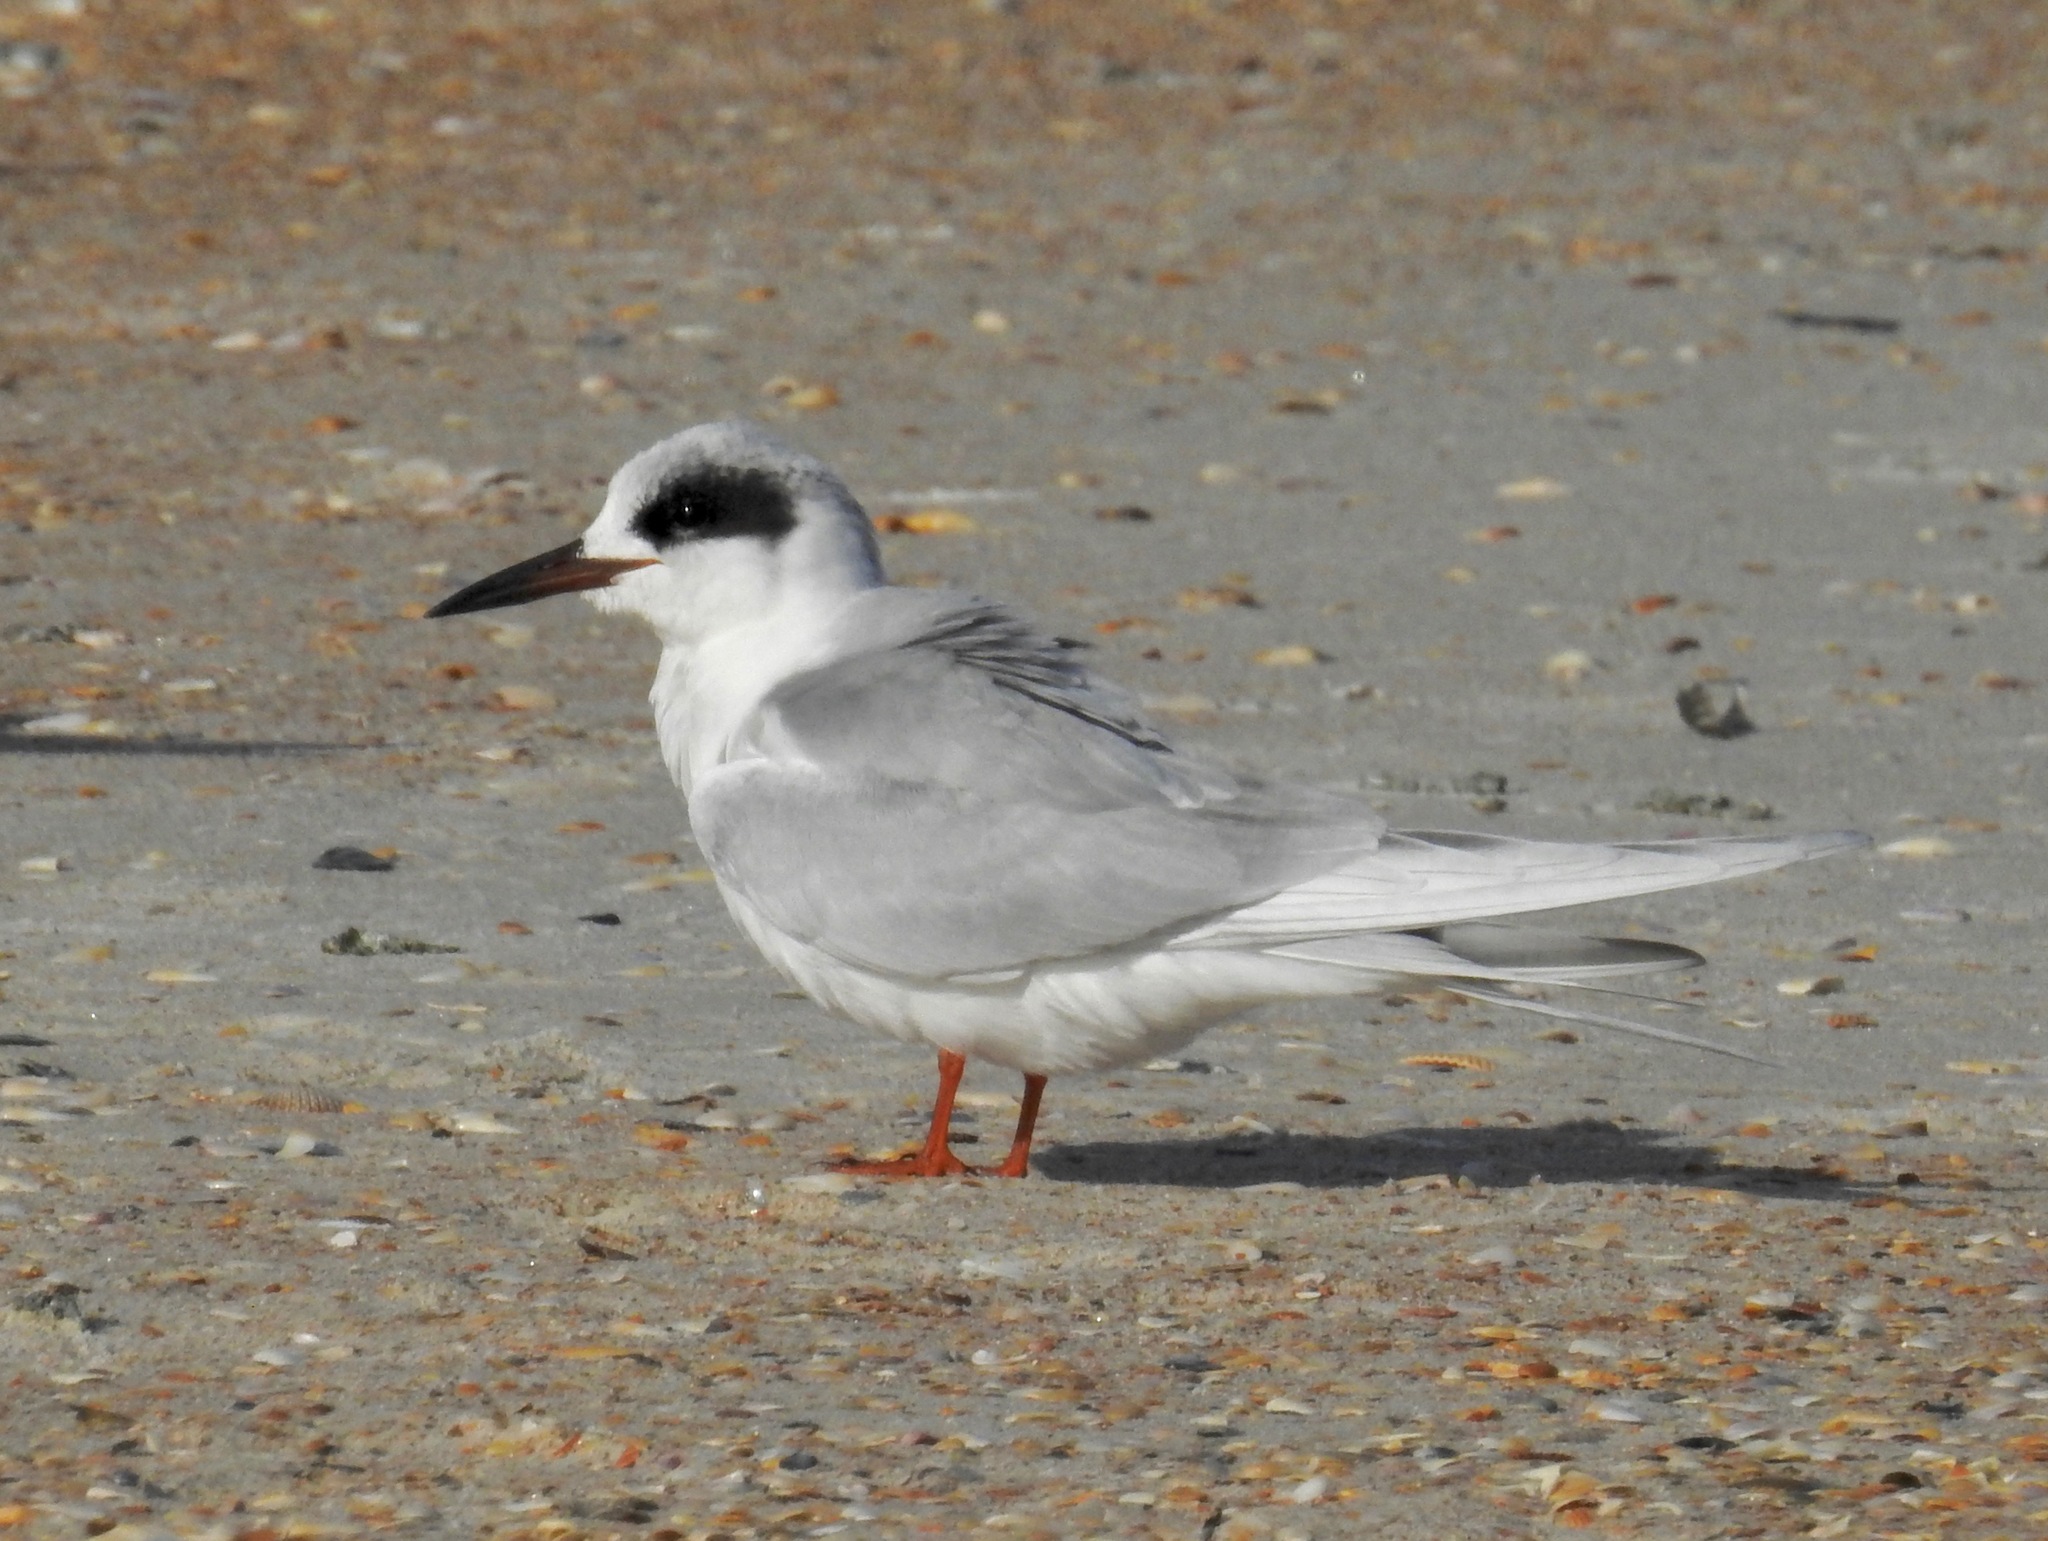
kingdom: Animalia
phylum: Chordata
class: Aves
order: Charadriiformes
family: Laridae
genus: Sterna
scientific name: Sterna forsteri
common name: Forster's tern
